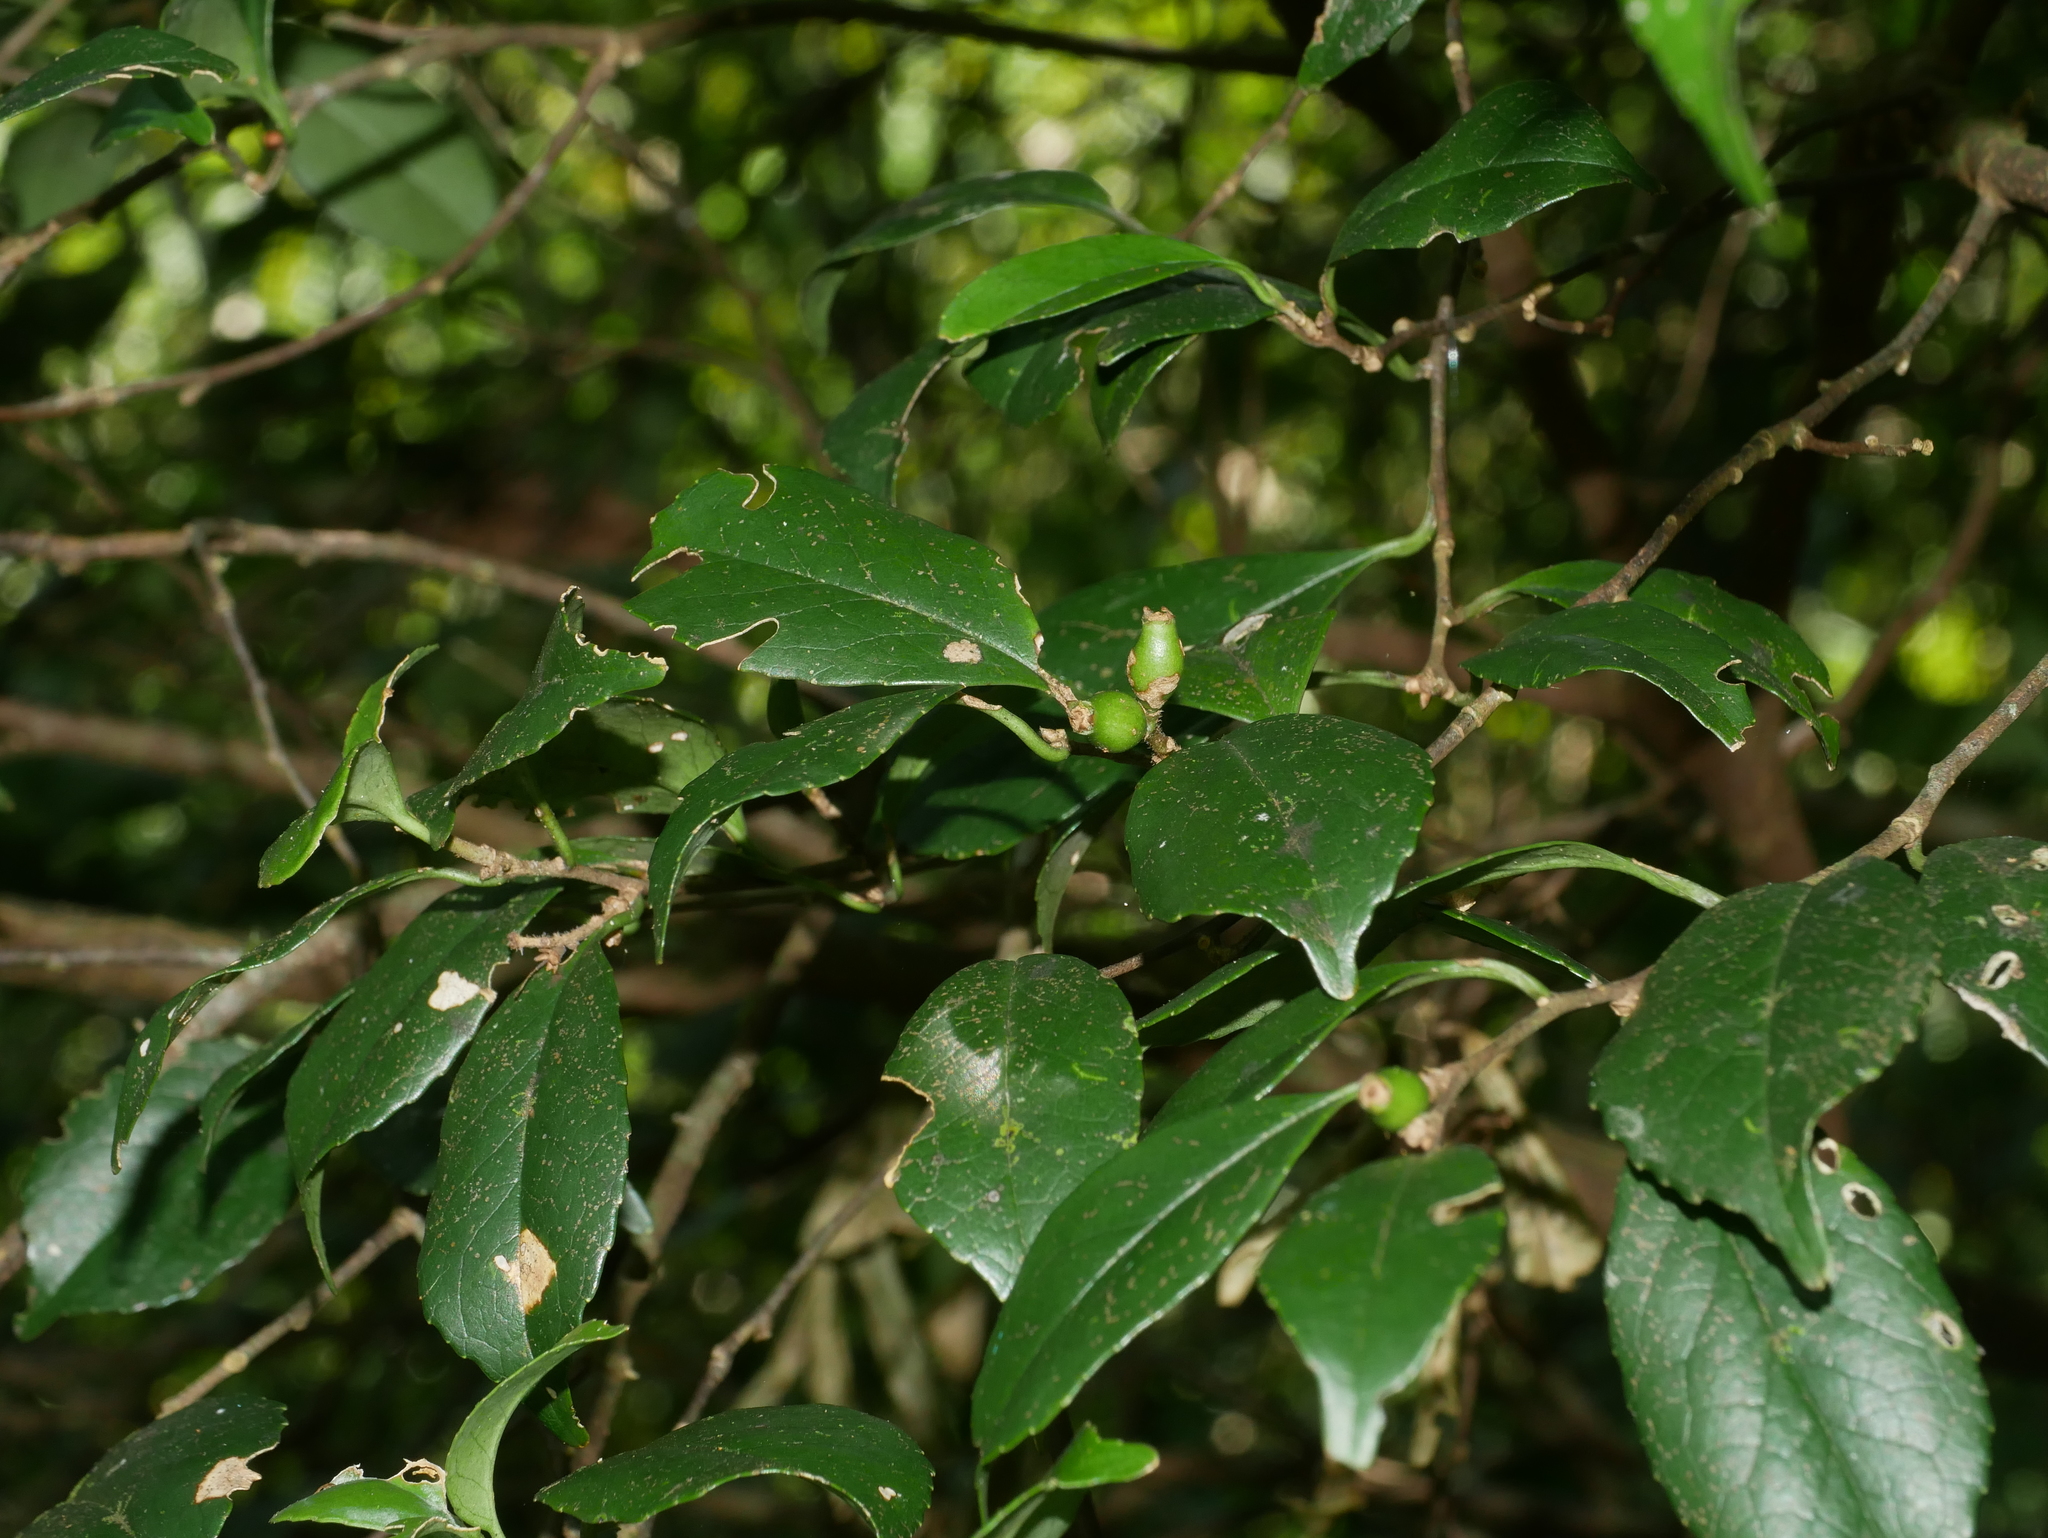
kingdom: Plantae
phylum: Tracheophyta
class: Magnoliopsida
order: Ericales
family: Symplocaceae
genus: Symplocos
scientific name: Symplocos sumuntia
